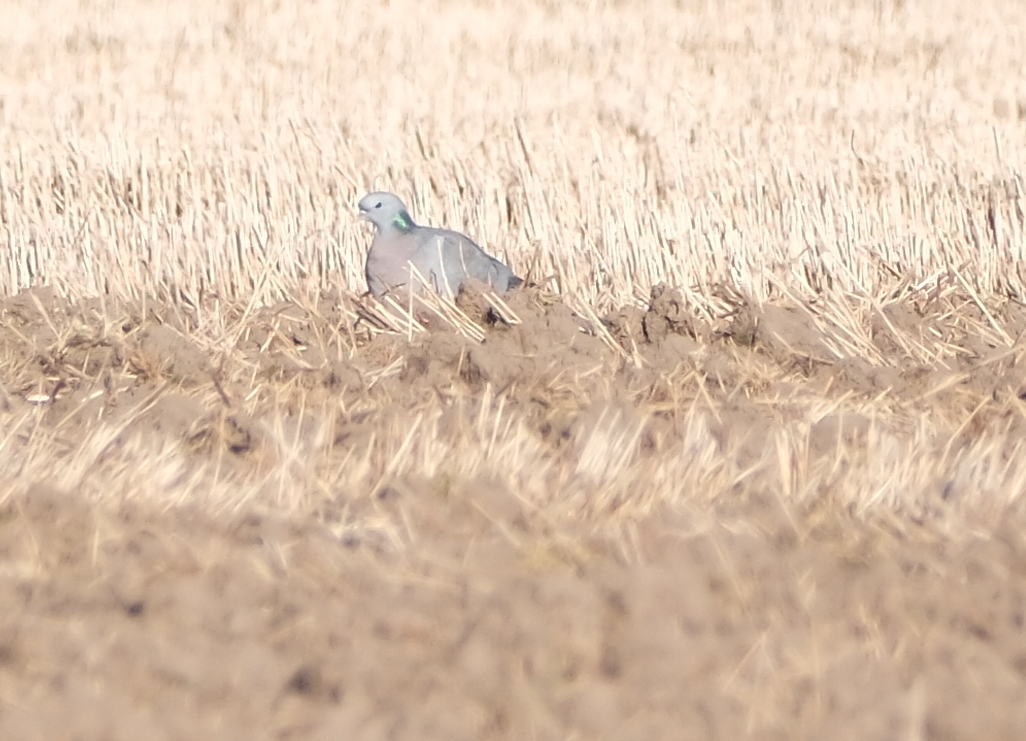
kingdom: Animalia
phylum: Chordata
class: Aves
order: Columbiformes
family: Columbidae
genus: Columba
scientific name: Columba oenas
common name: Stock dove
